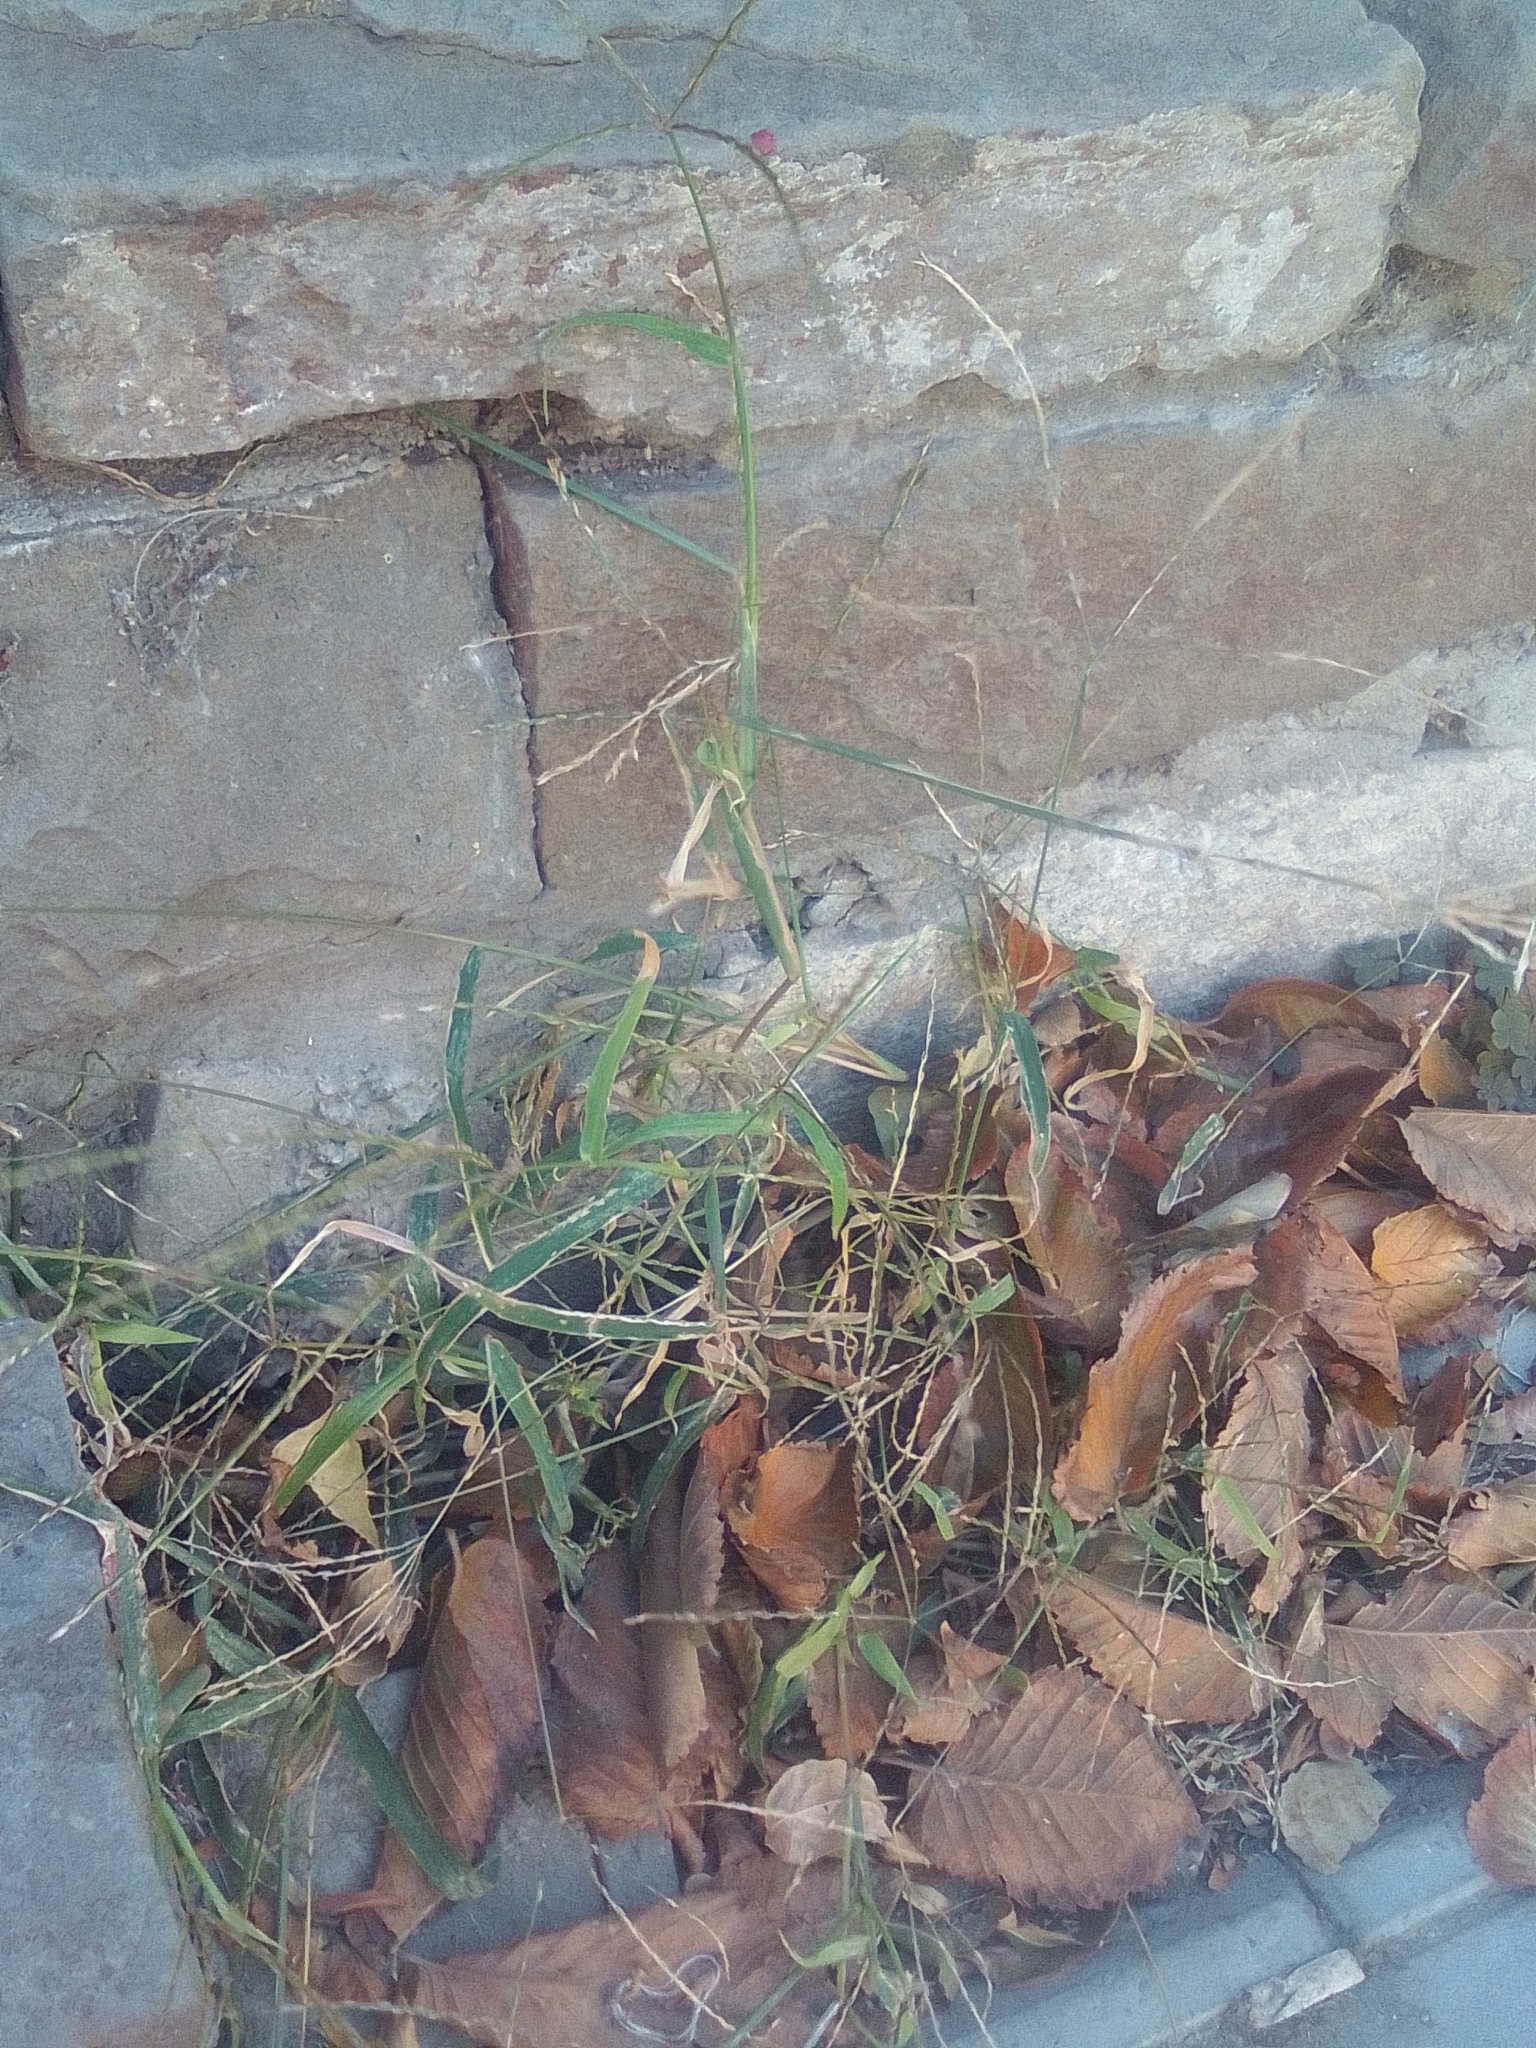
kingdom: Plantae
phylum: Tracheophyta
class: Liliopsida
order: Poales
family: Poaceae
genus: Cynodon
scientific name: Cynodon dactylon
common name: Bermuda grass
